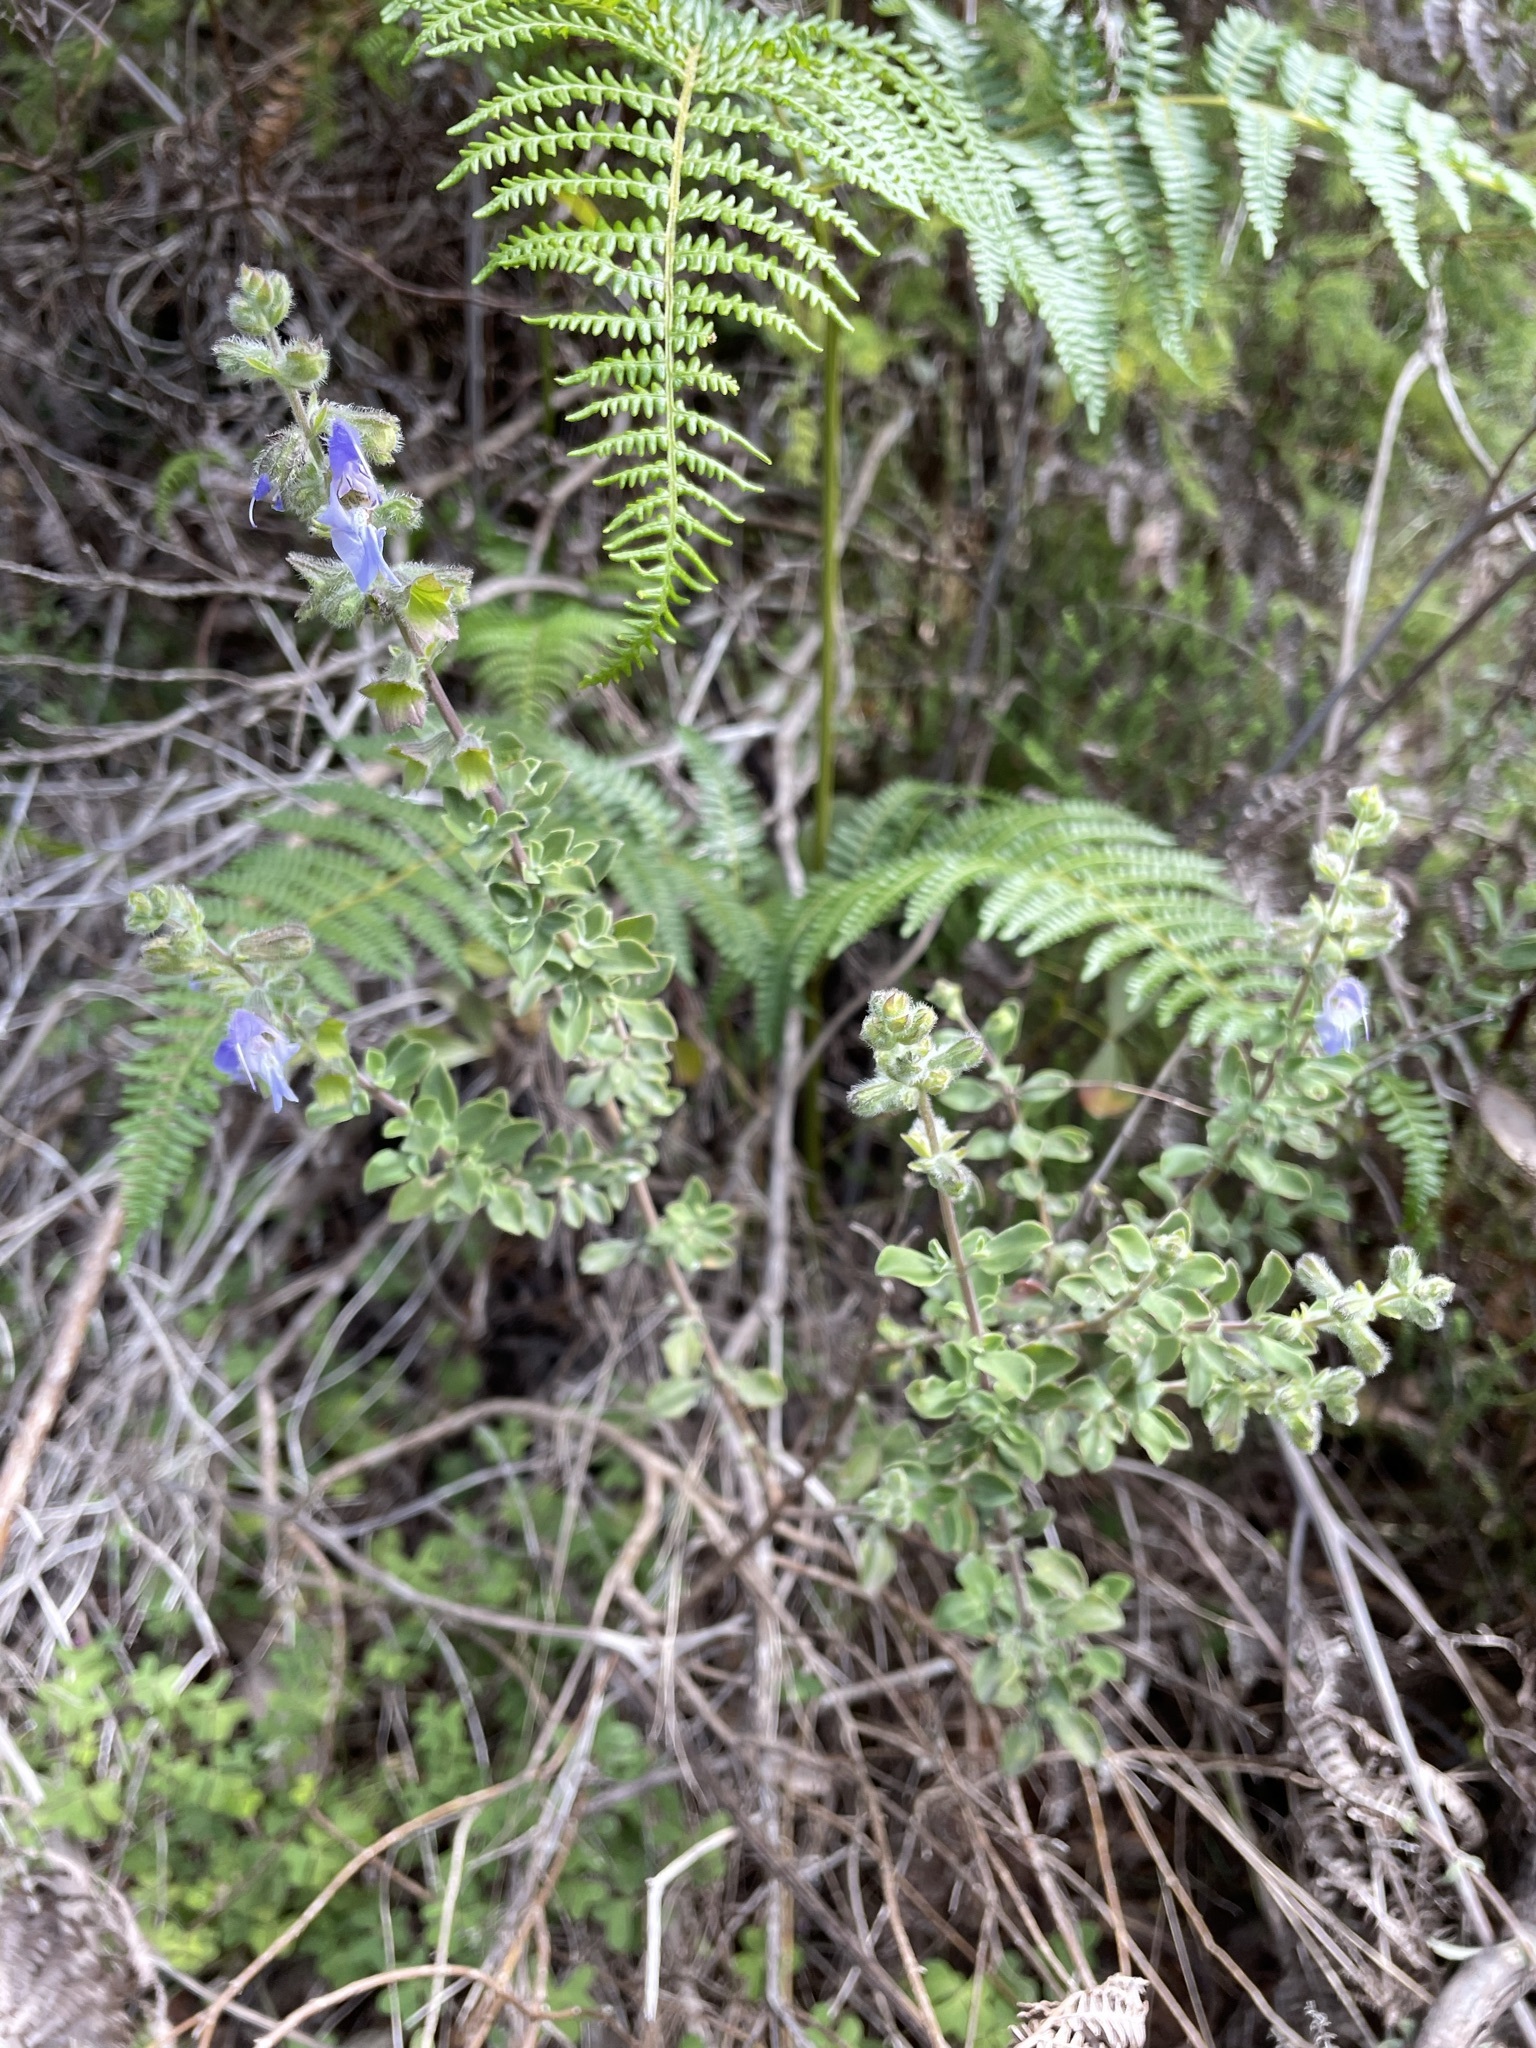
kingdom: Plantae
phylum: Tracheophyta
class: Magnoliopsida
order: Lamiales
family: Lamiaceae
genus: Salvia
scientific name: Salvia africana
